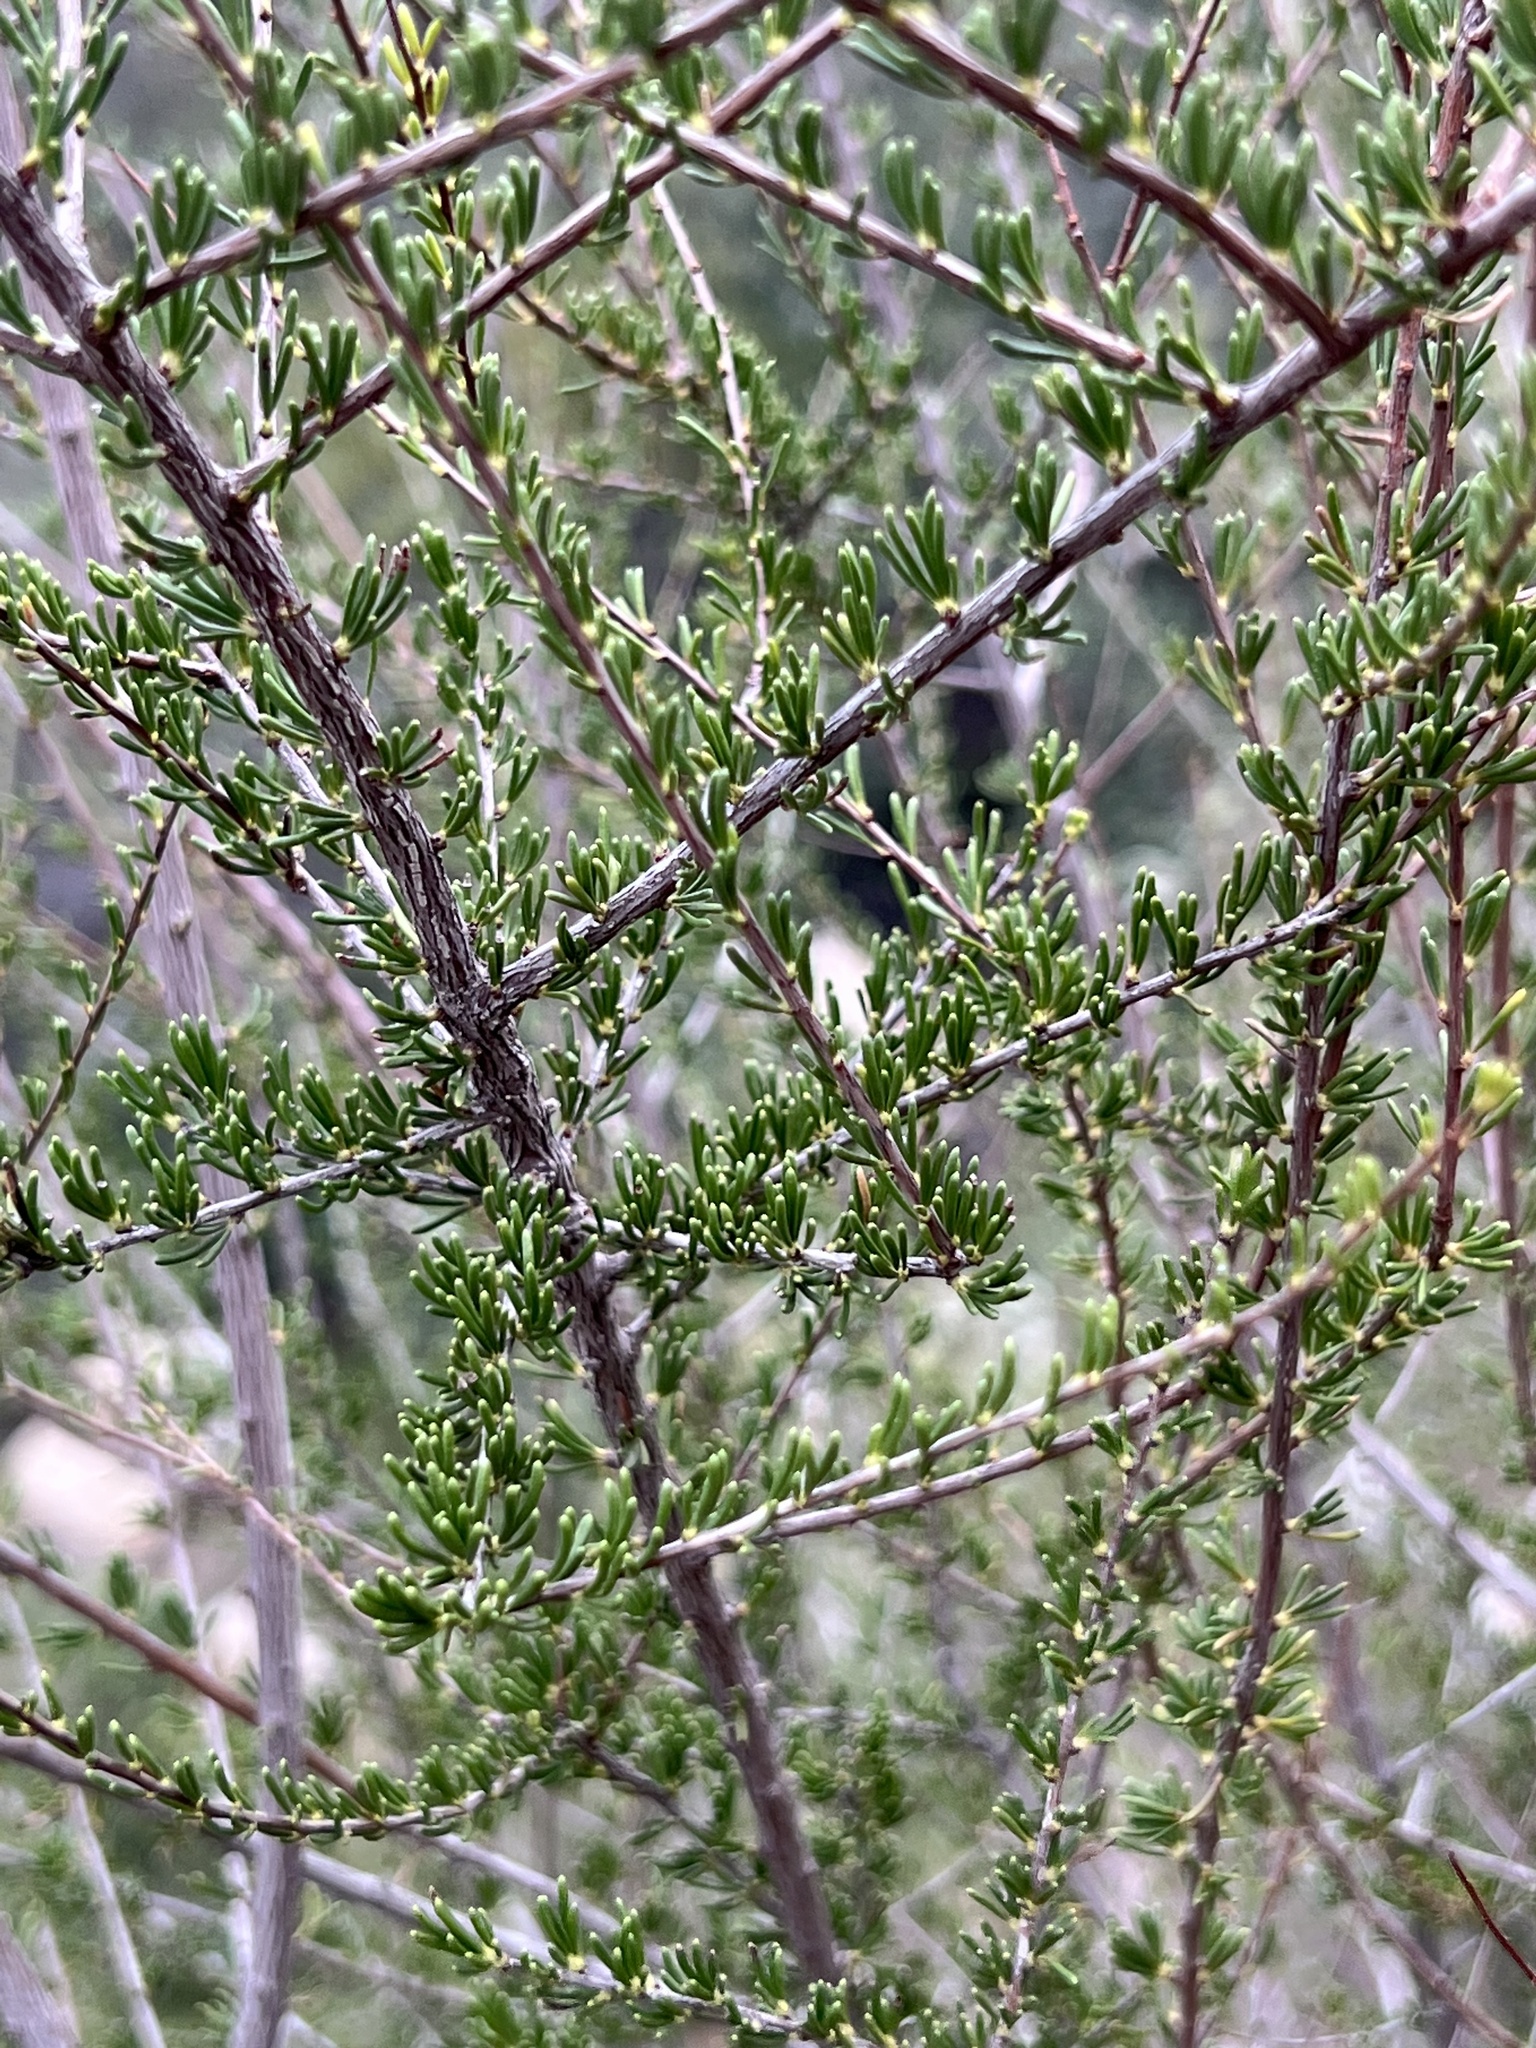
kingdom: Plantae
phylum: Tracheophyta
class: Magnoliopsida
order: Rosales
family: Rosaceae
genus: Adenostoma
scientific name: Adenostoma fasciculatum
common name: Chamise
